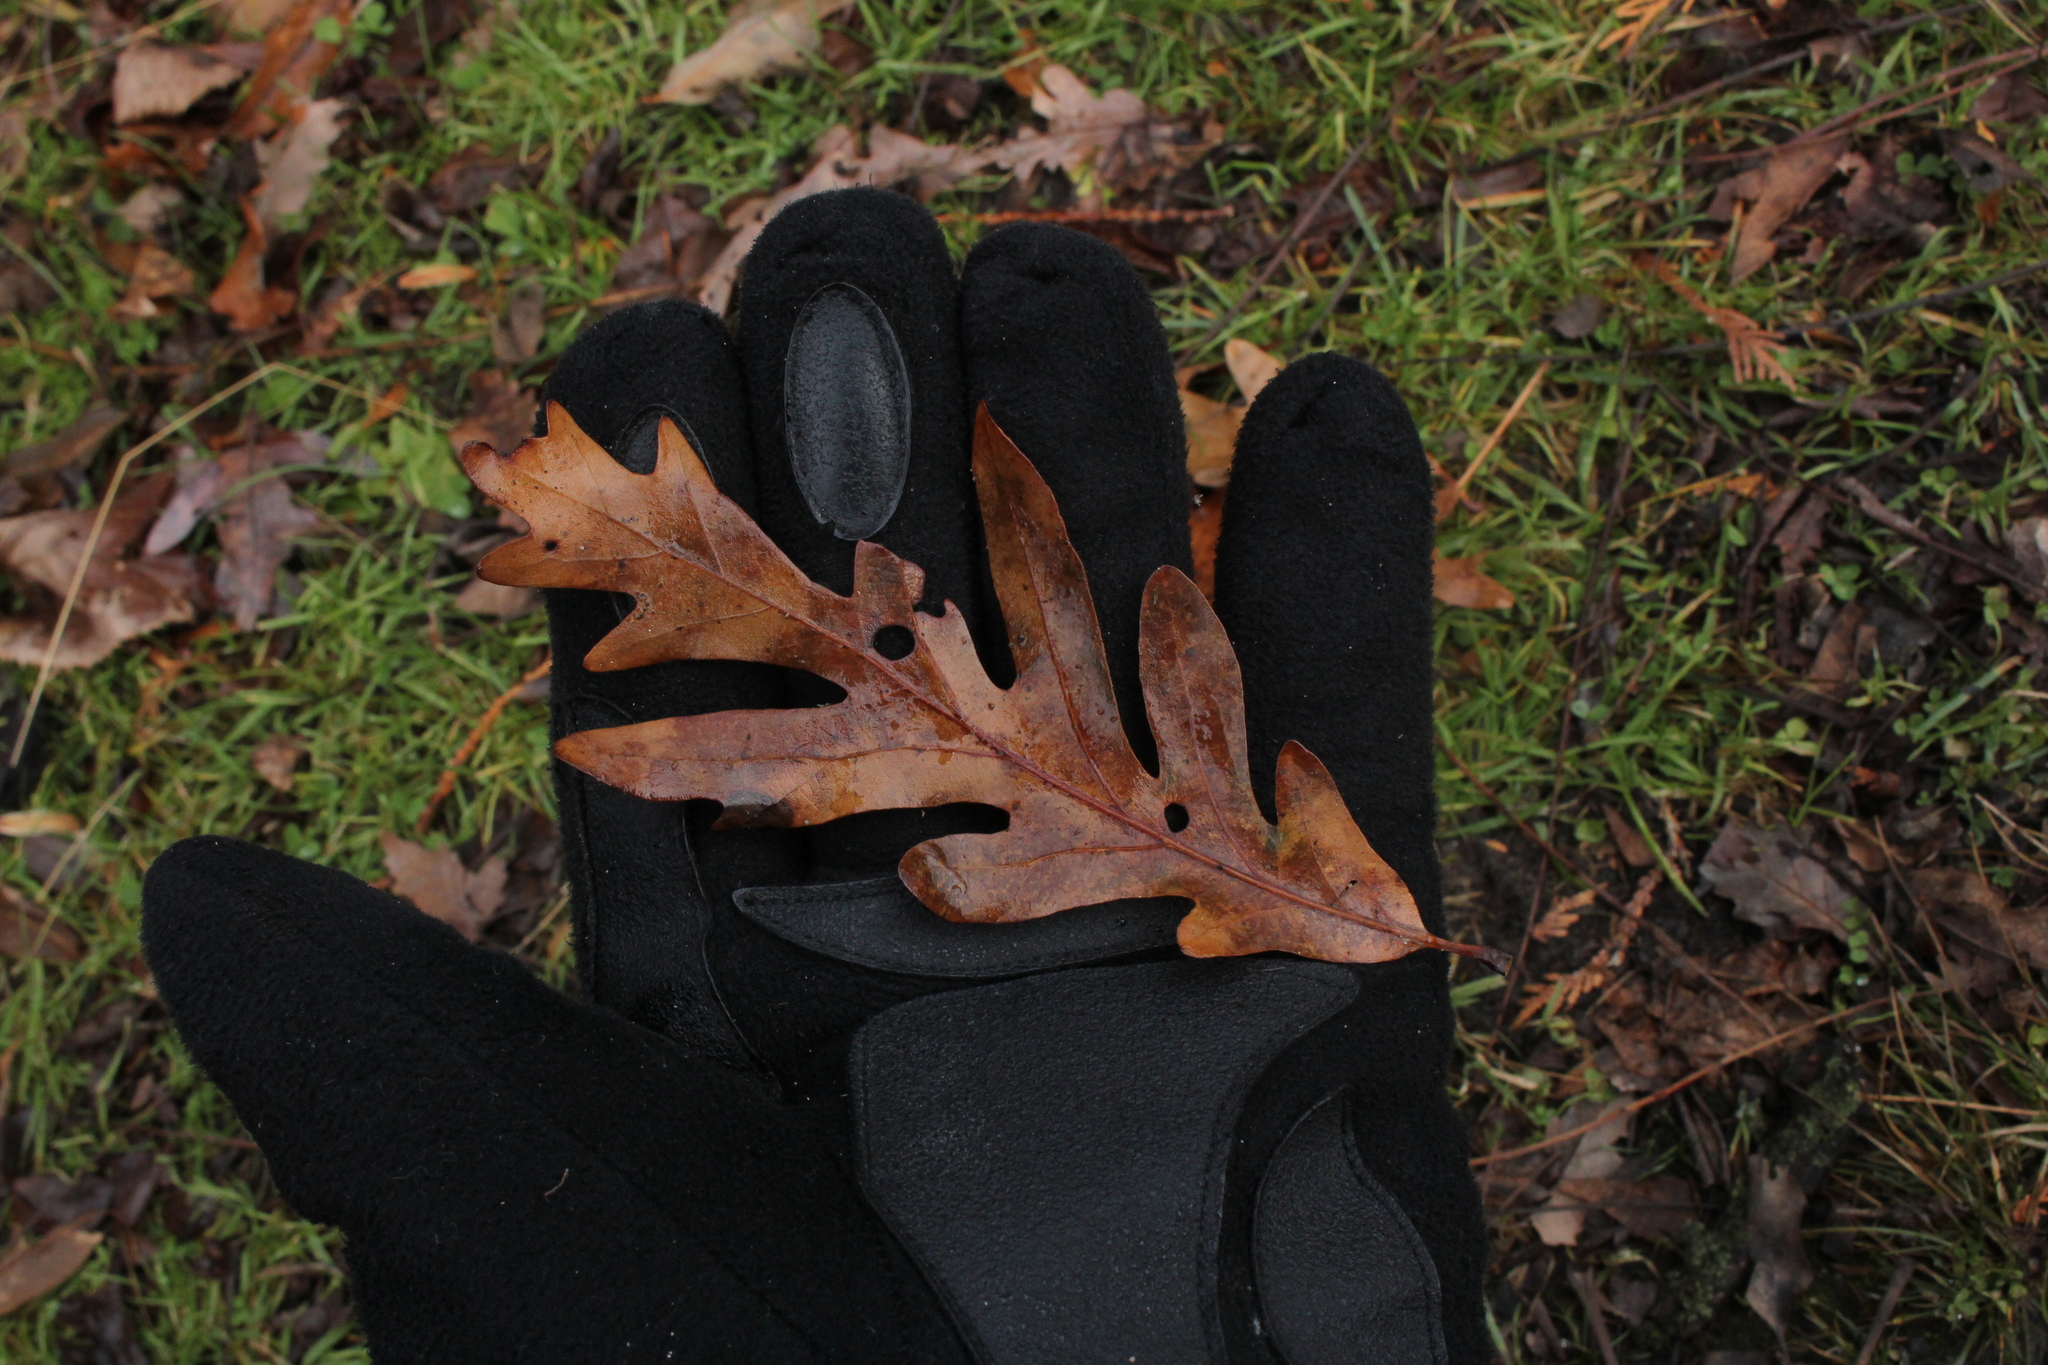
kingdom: Plantae
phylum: Tracheophyta
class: Magnoliopsida
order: Fagales
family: Fagaceae
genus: Quercus
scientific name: Quercus alba
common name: White oak
